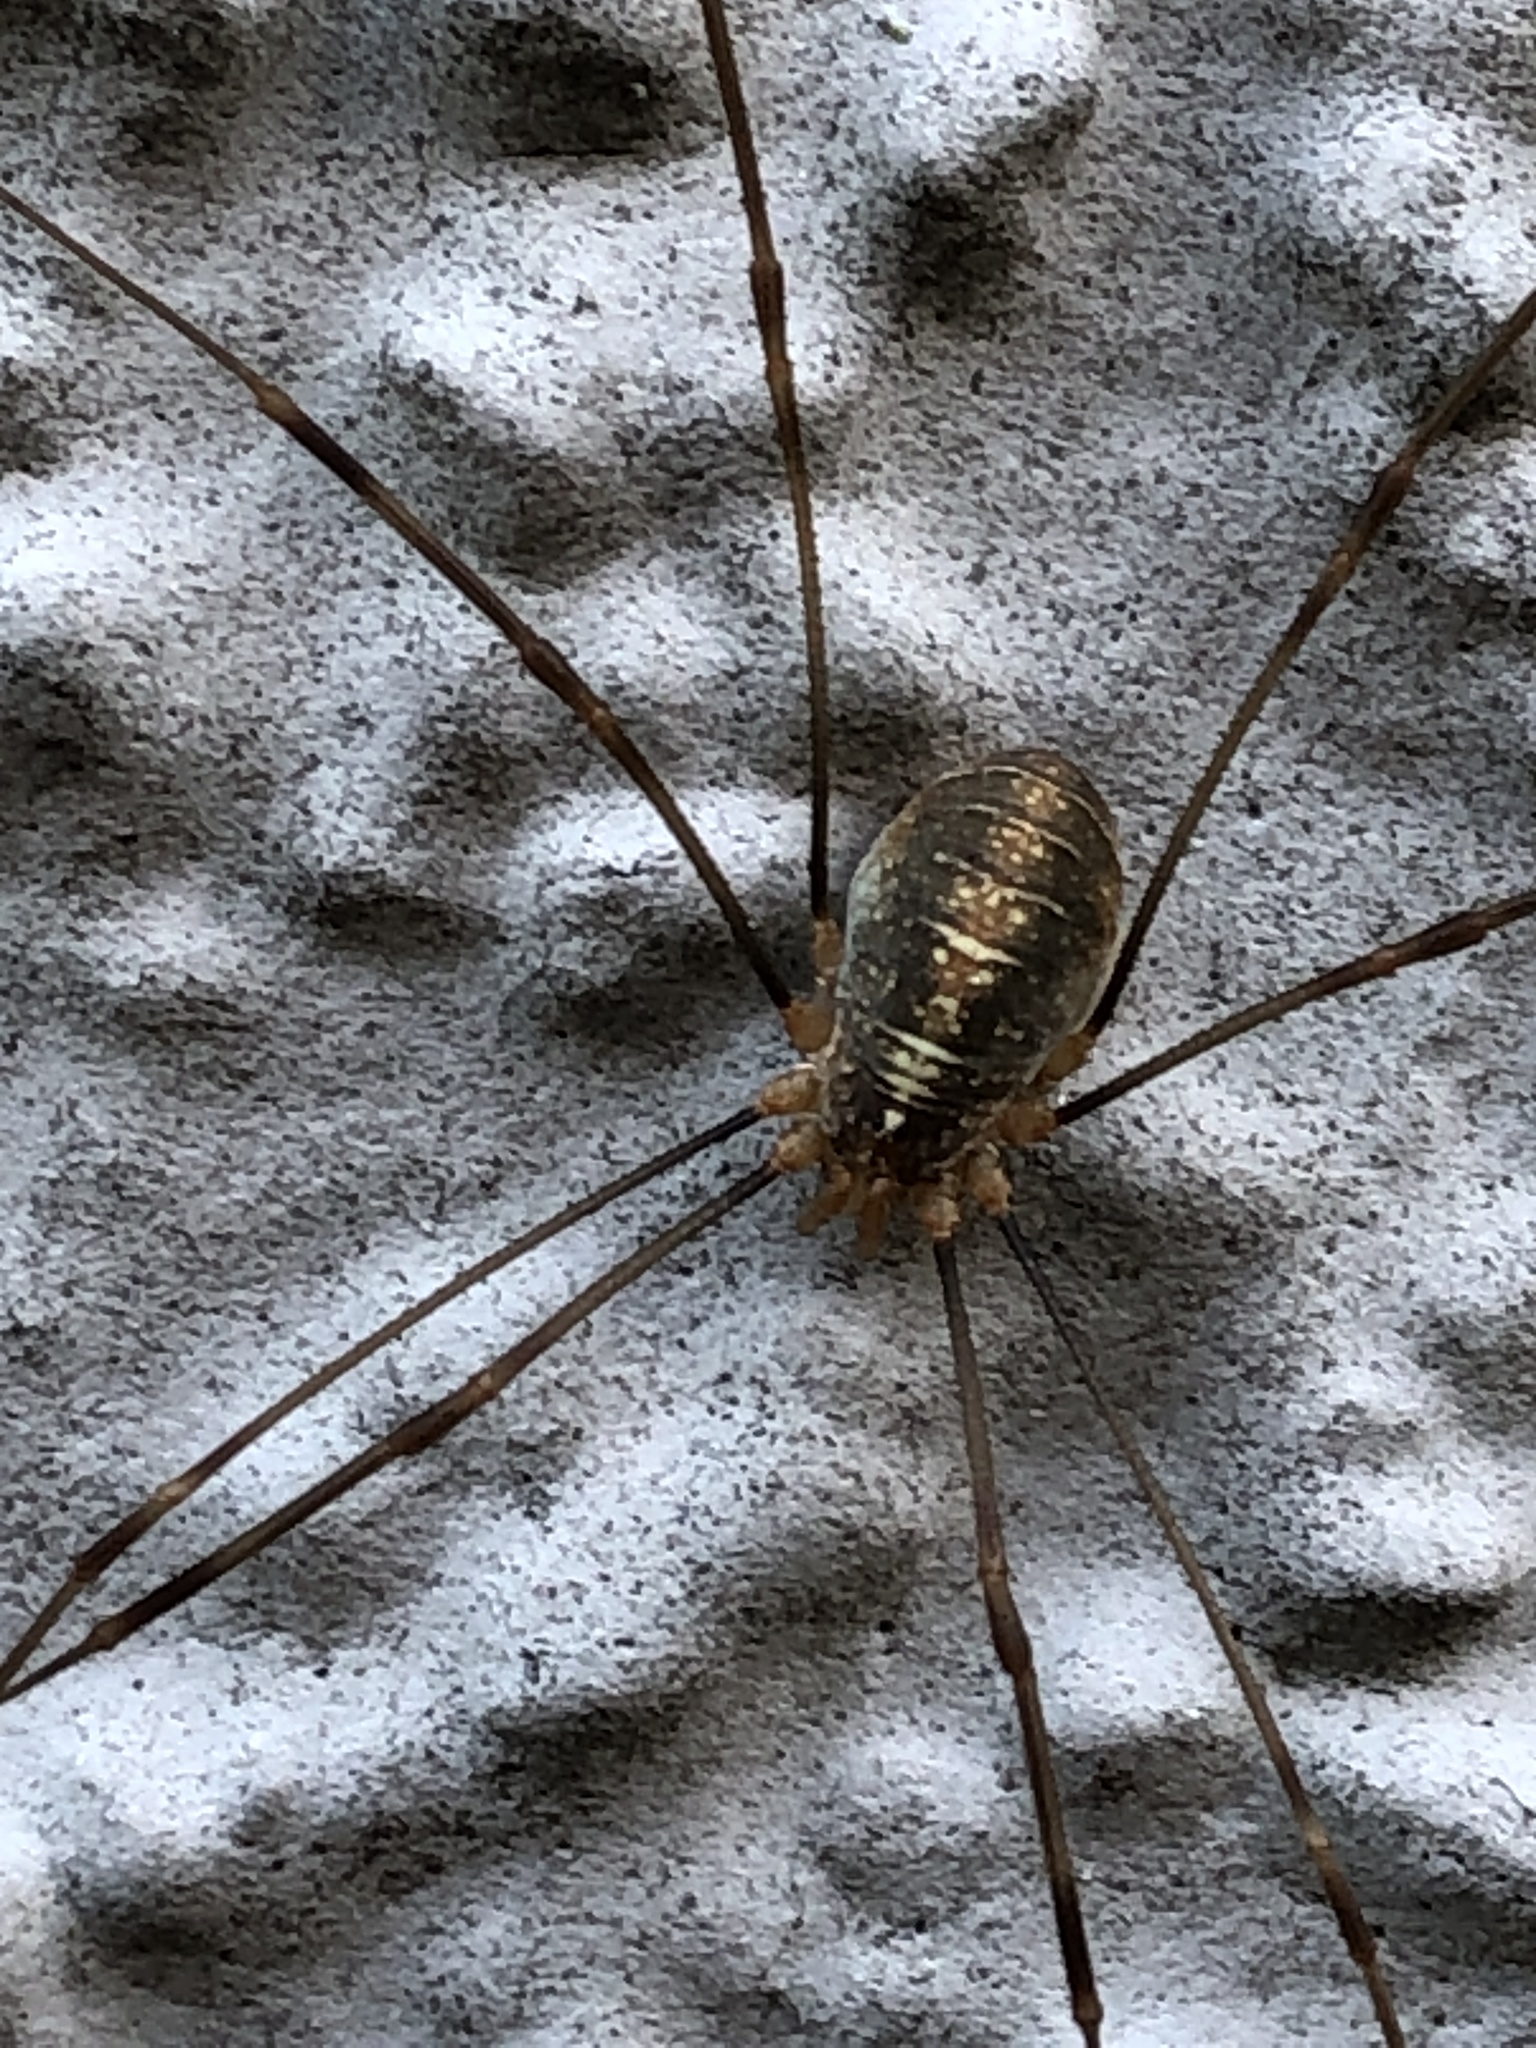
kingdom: Animalia
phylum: Arthropoda
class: Arachnida
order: Opiliones
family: Phalangiidae
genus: Opilio
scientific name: Opilio canestrinii
